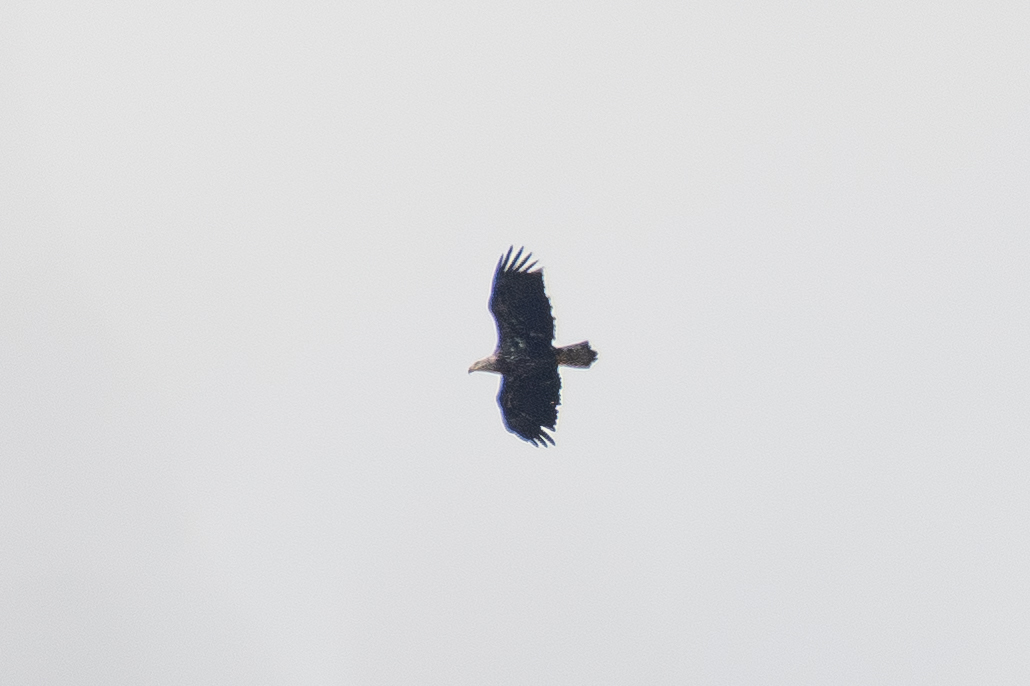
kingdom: Animalia
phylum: Chordata
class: Aves
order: Accipitriformes
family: Accipitridae
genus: Haliaeetus
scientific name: Haliaeetus leucocephalus
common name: Bald eagle
